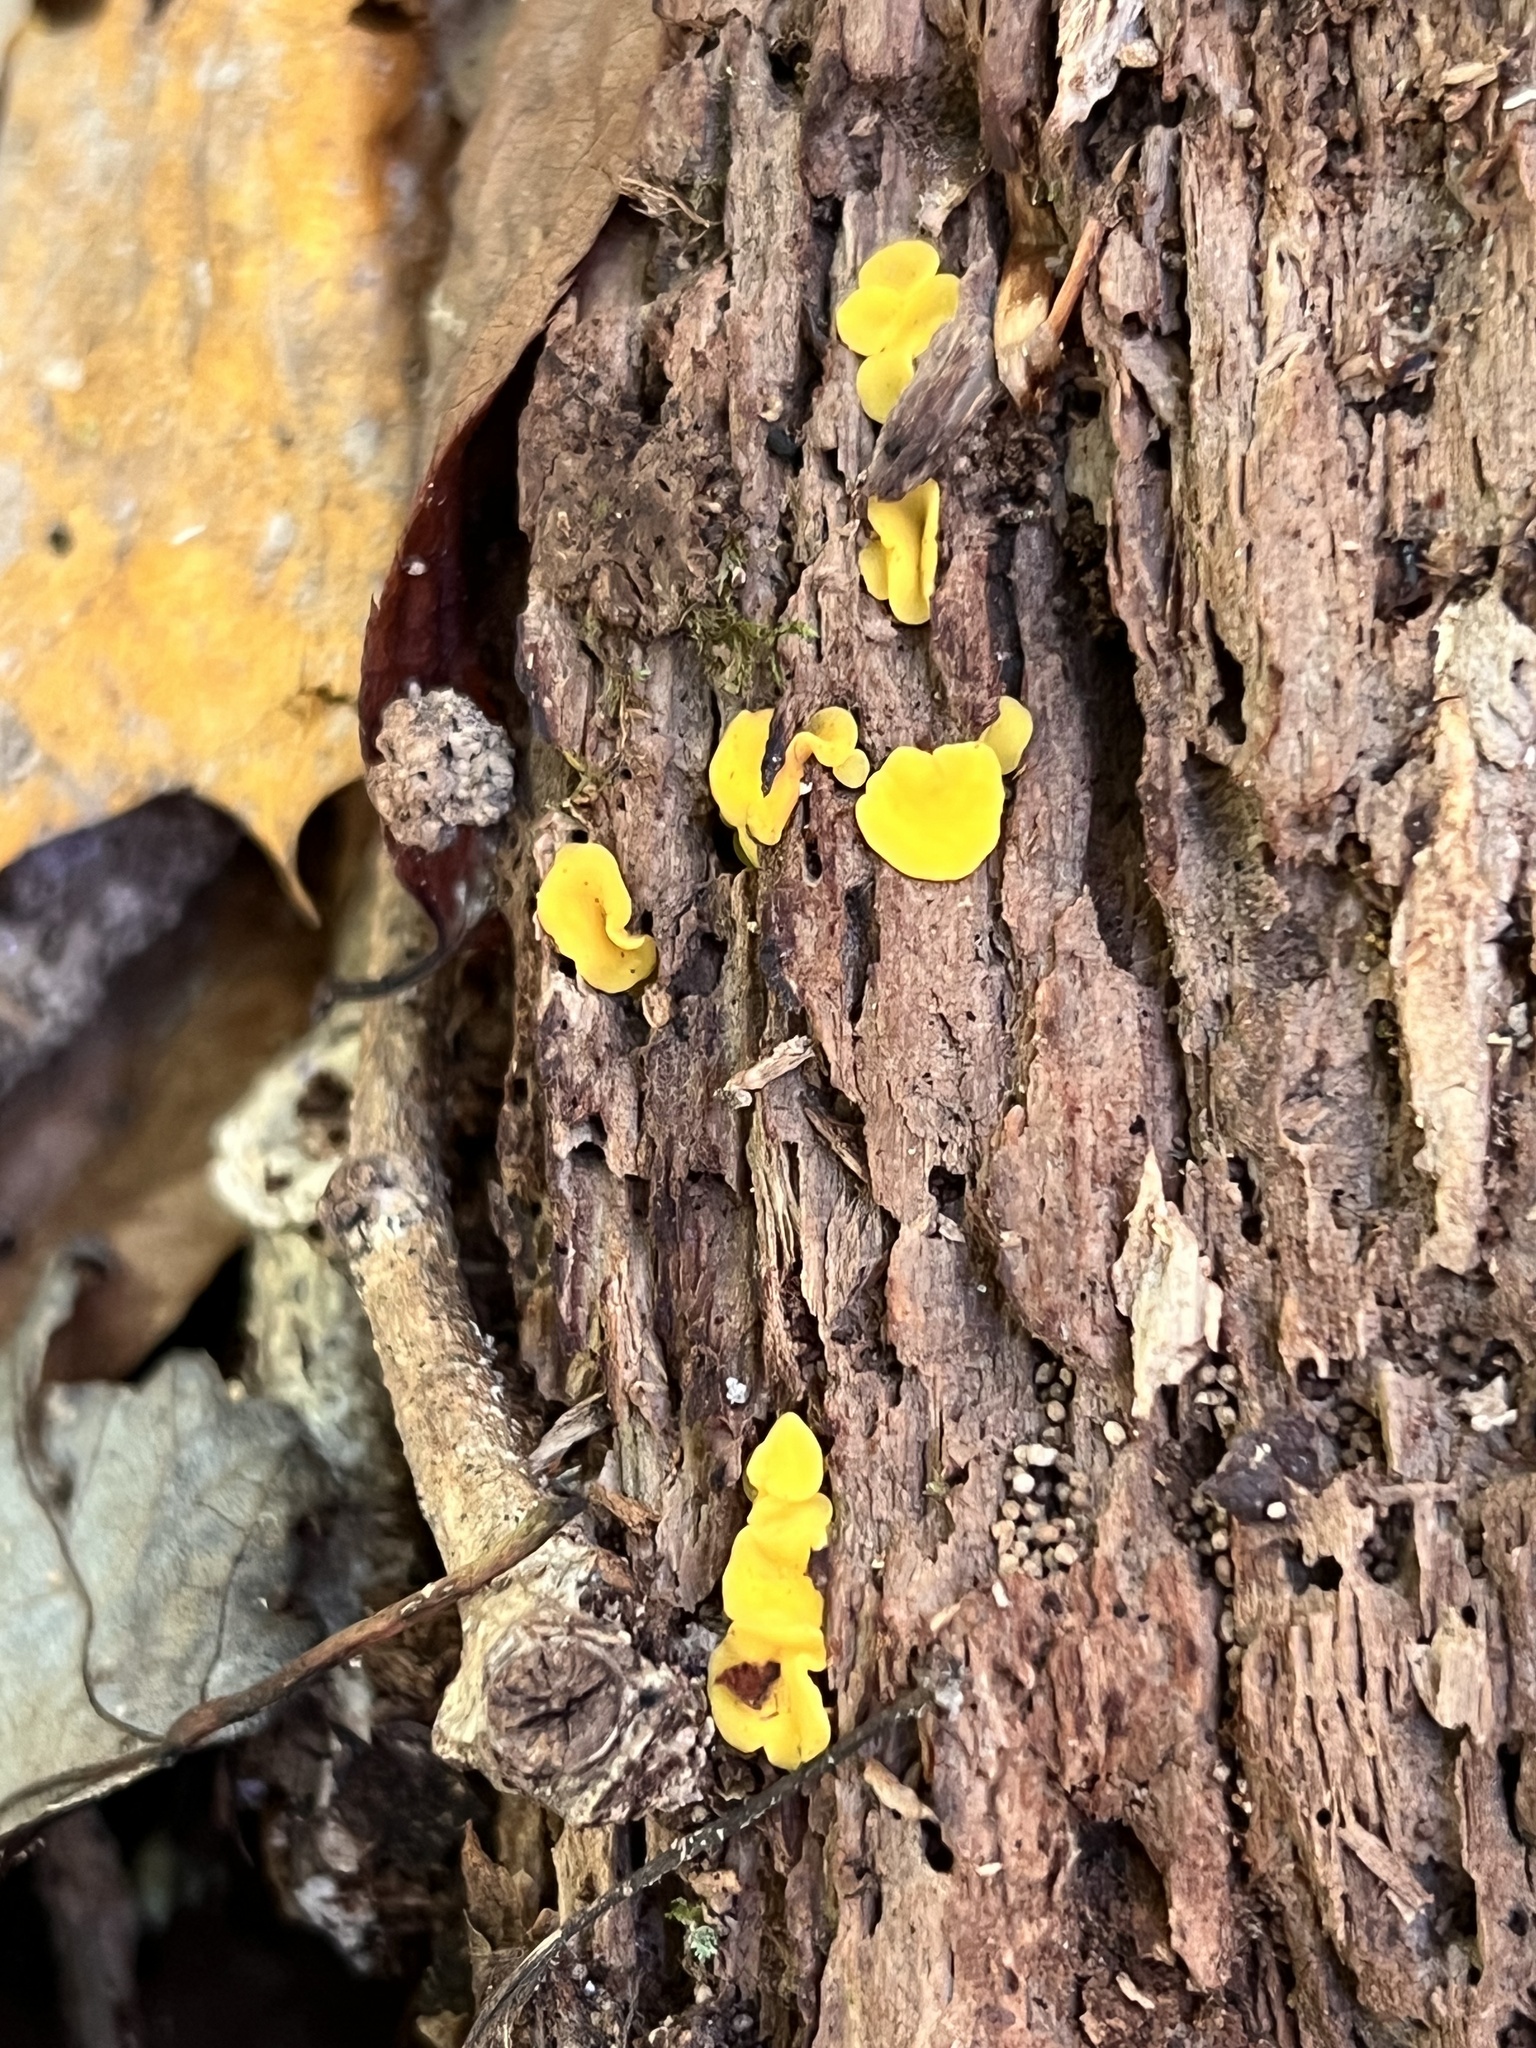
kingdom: Fungi
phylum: Ascomycota
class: Leotiomycetes
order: Helotiales
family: Pezizellaceae
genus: Calycina
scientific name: Calycina citrina
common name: Yellow fairy cups
